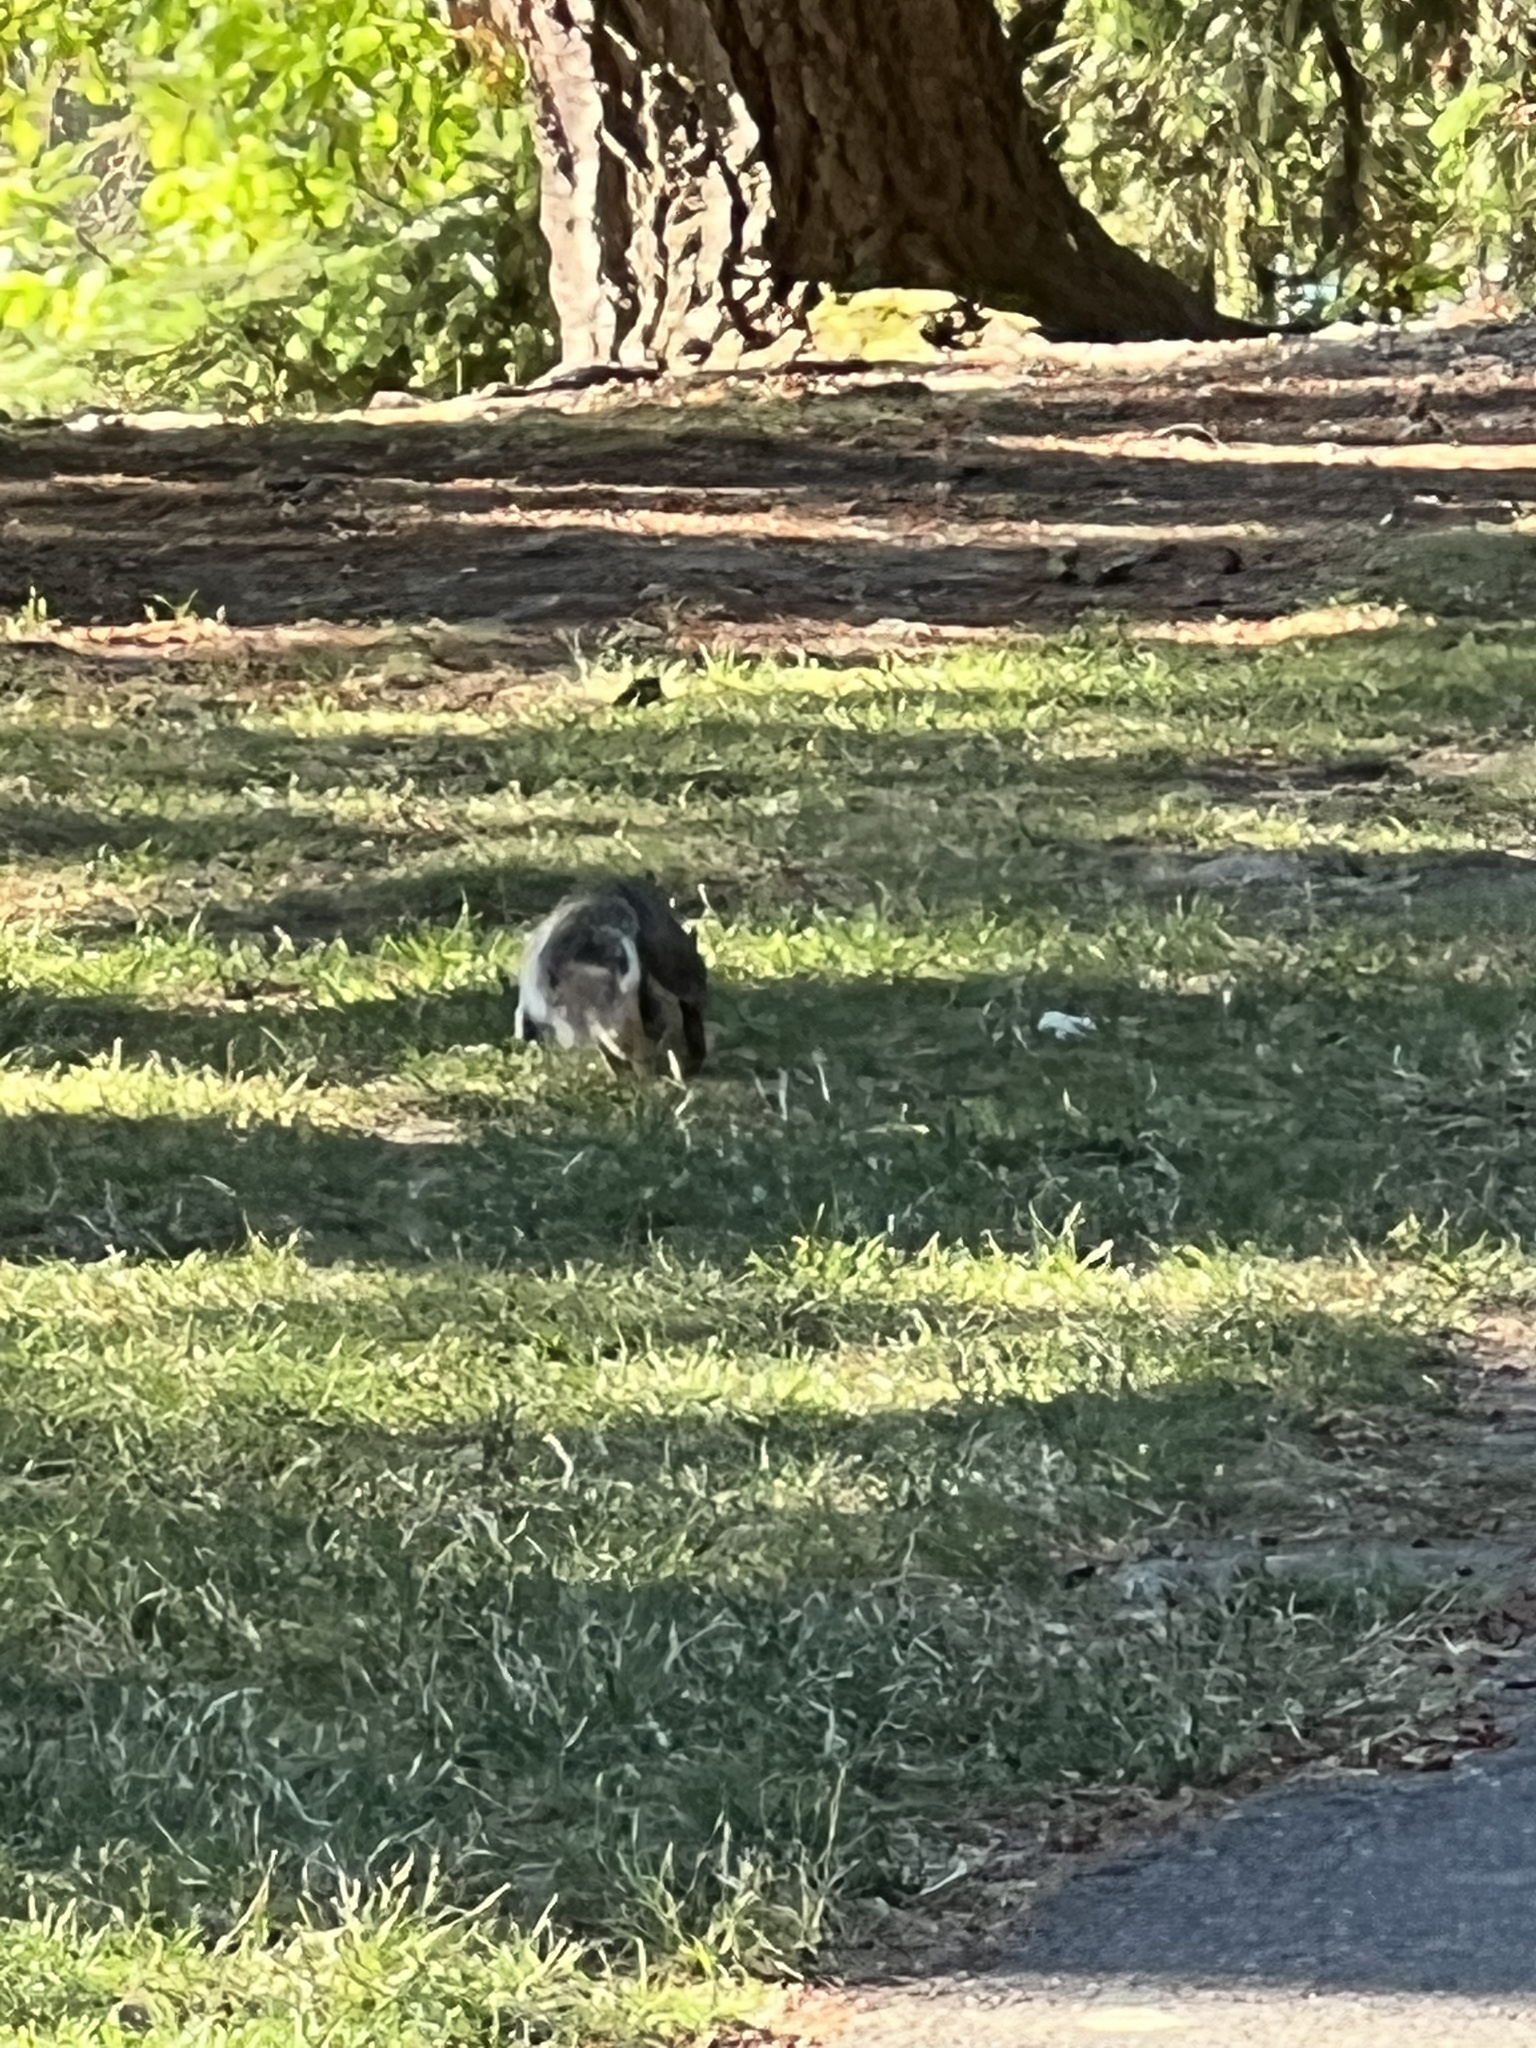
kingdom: Animalia
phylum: Chordata
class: Mammalia
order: Rodentia
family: Sciuridae
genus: Sciurus
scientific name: Sciurus carolinensis
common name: Eastern gray squirrel
